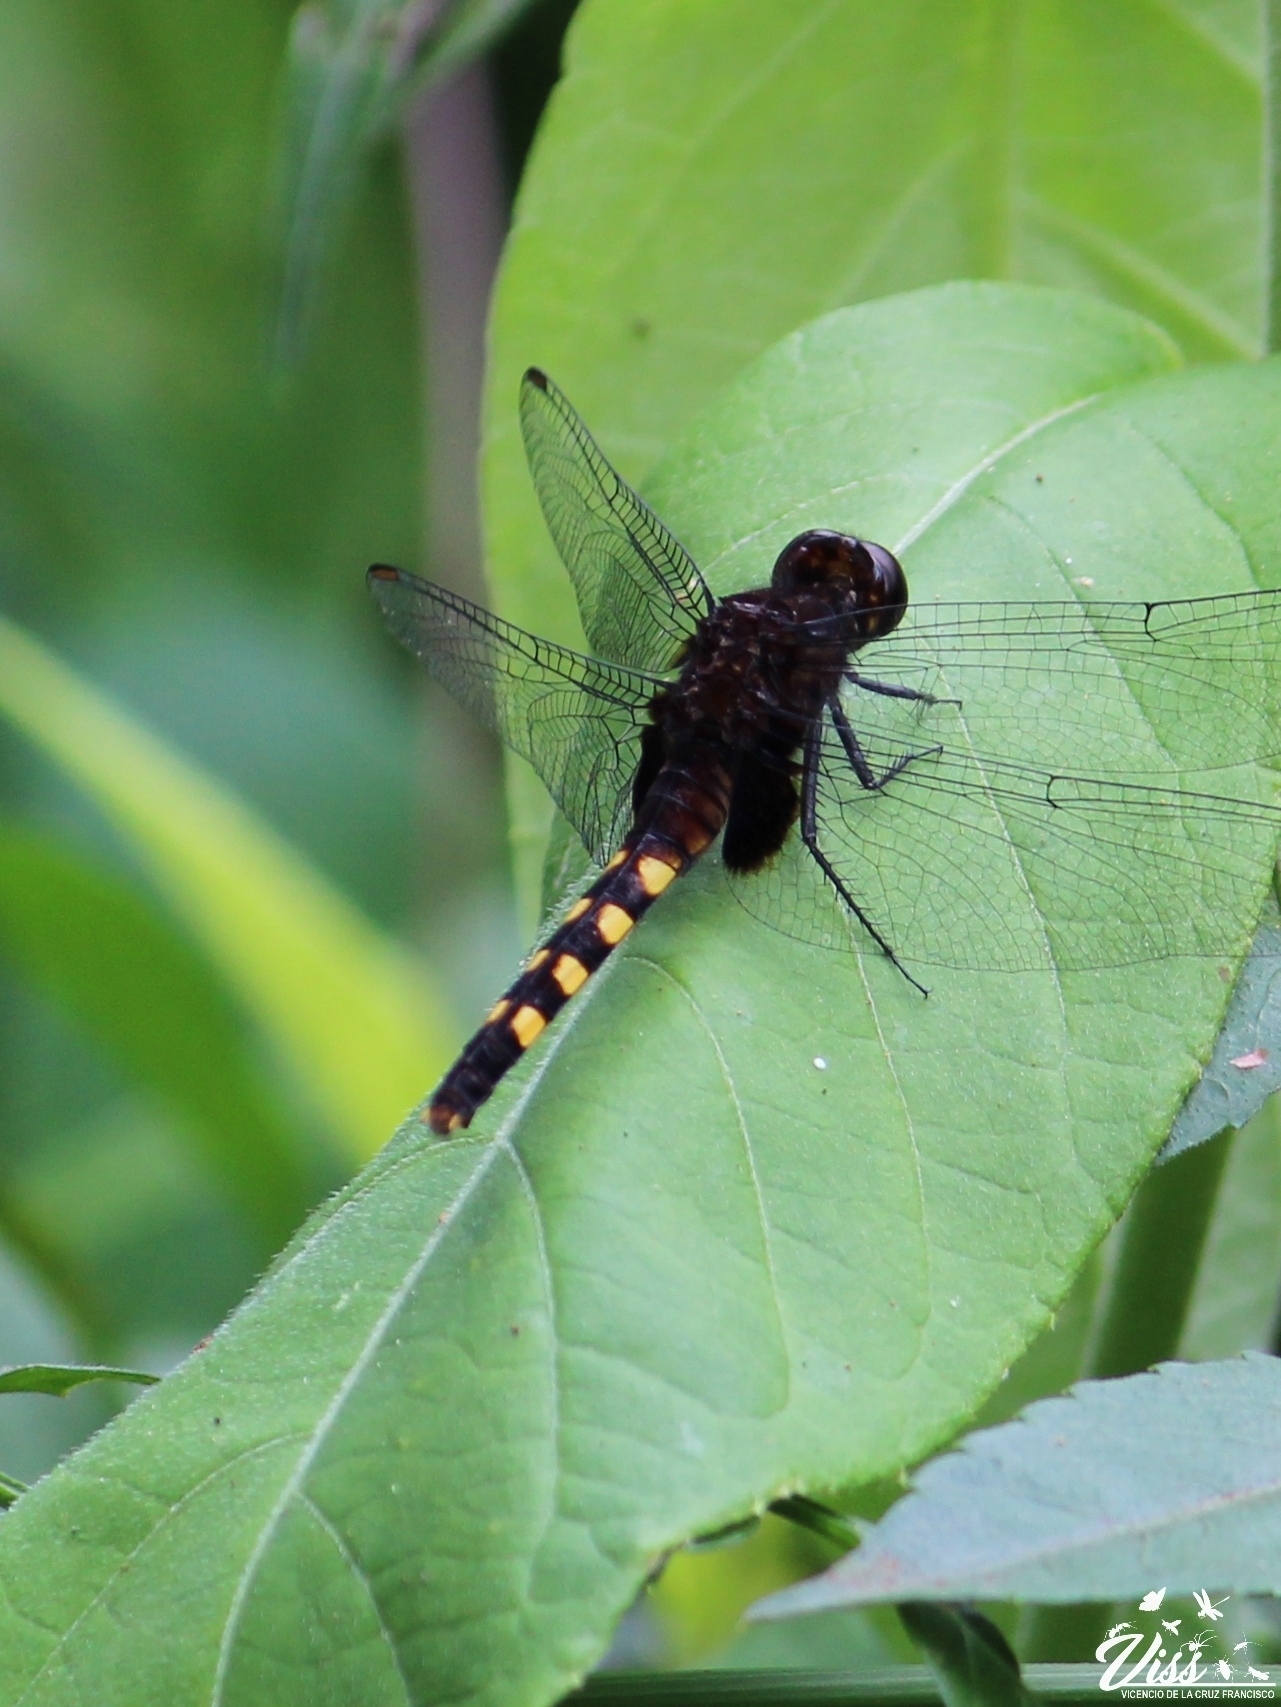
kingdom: Animalia
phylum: Arthropoda
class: Insecta
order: Odonata
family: Libellulidae
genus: Erythemis
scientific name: Erythemis attala
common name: Black pondhawk
